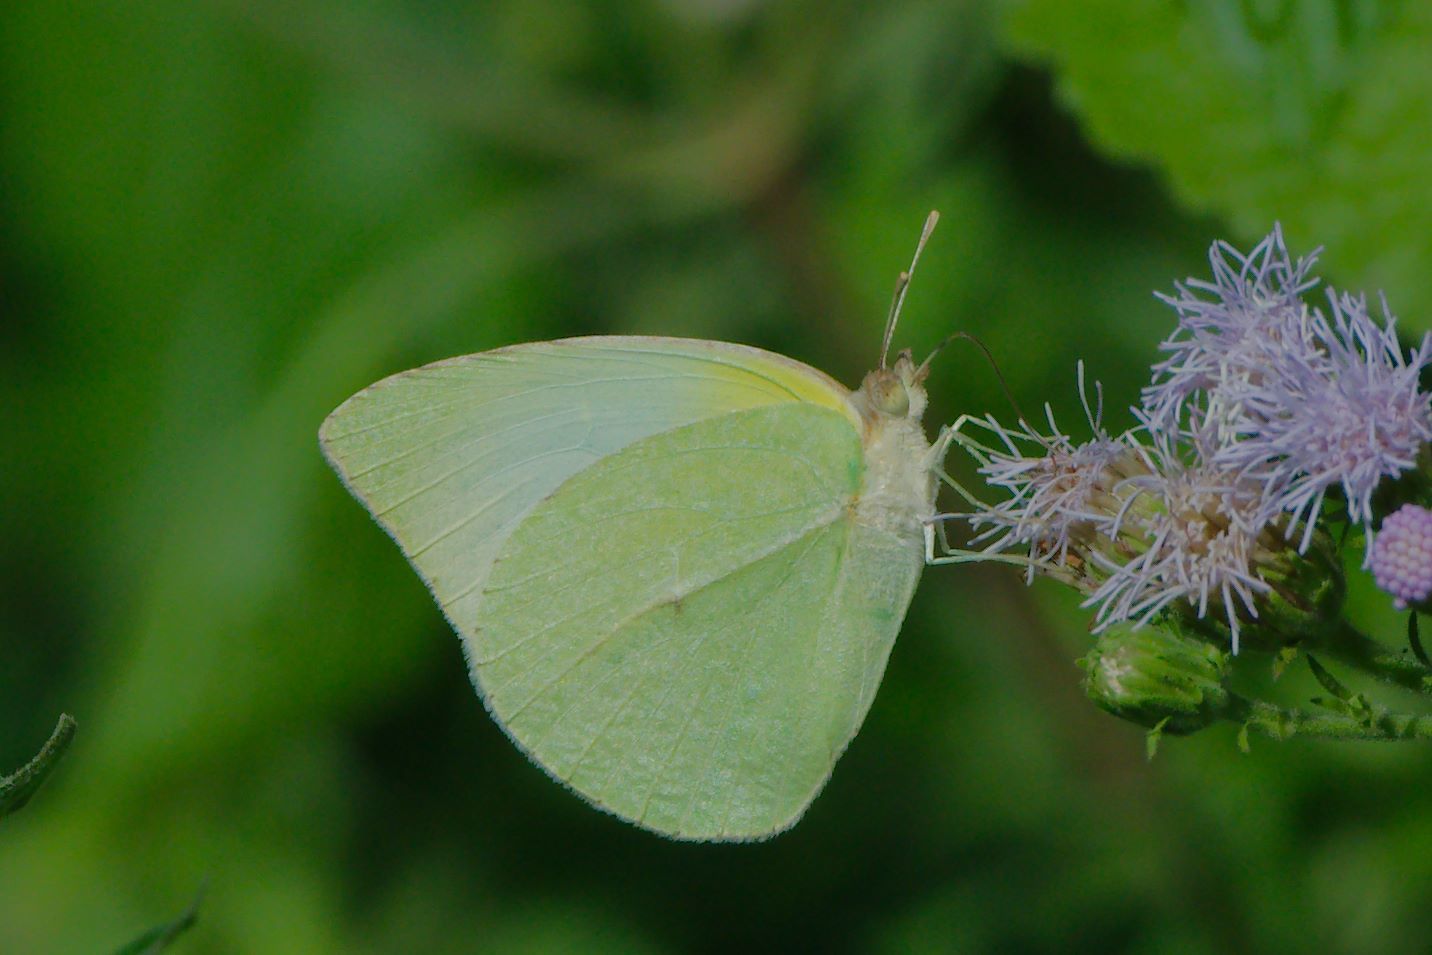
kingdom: Animalia
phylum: Arthropoda
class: Insecta
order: Lepidoptera
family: Pieridae
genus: Kricogonia
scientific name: Kricogonia lyside
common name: Guayacan sulphur,
